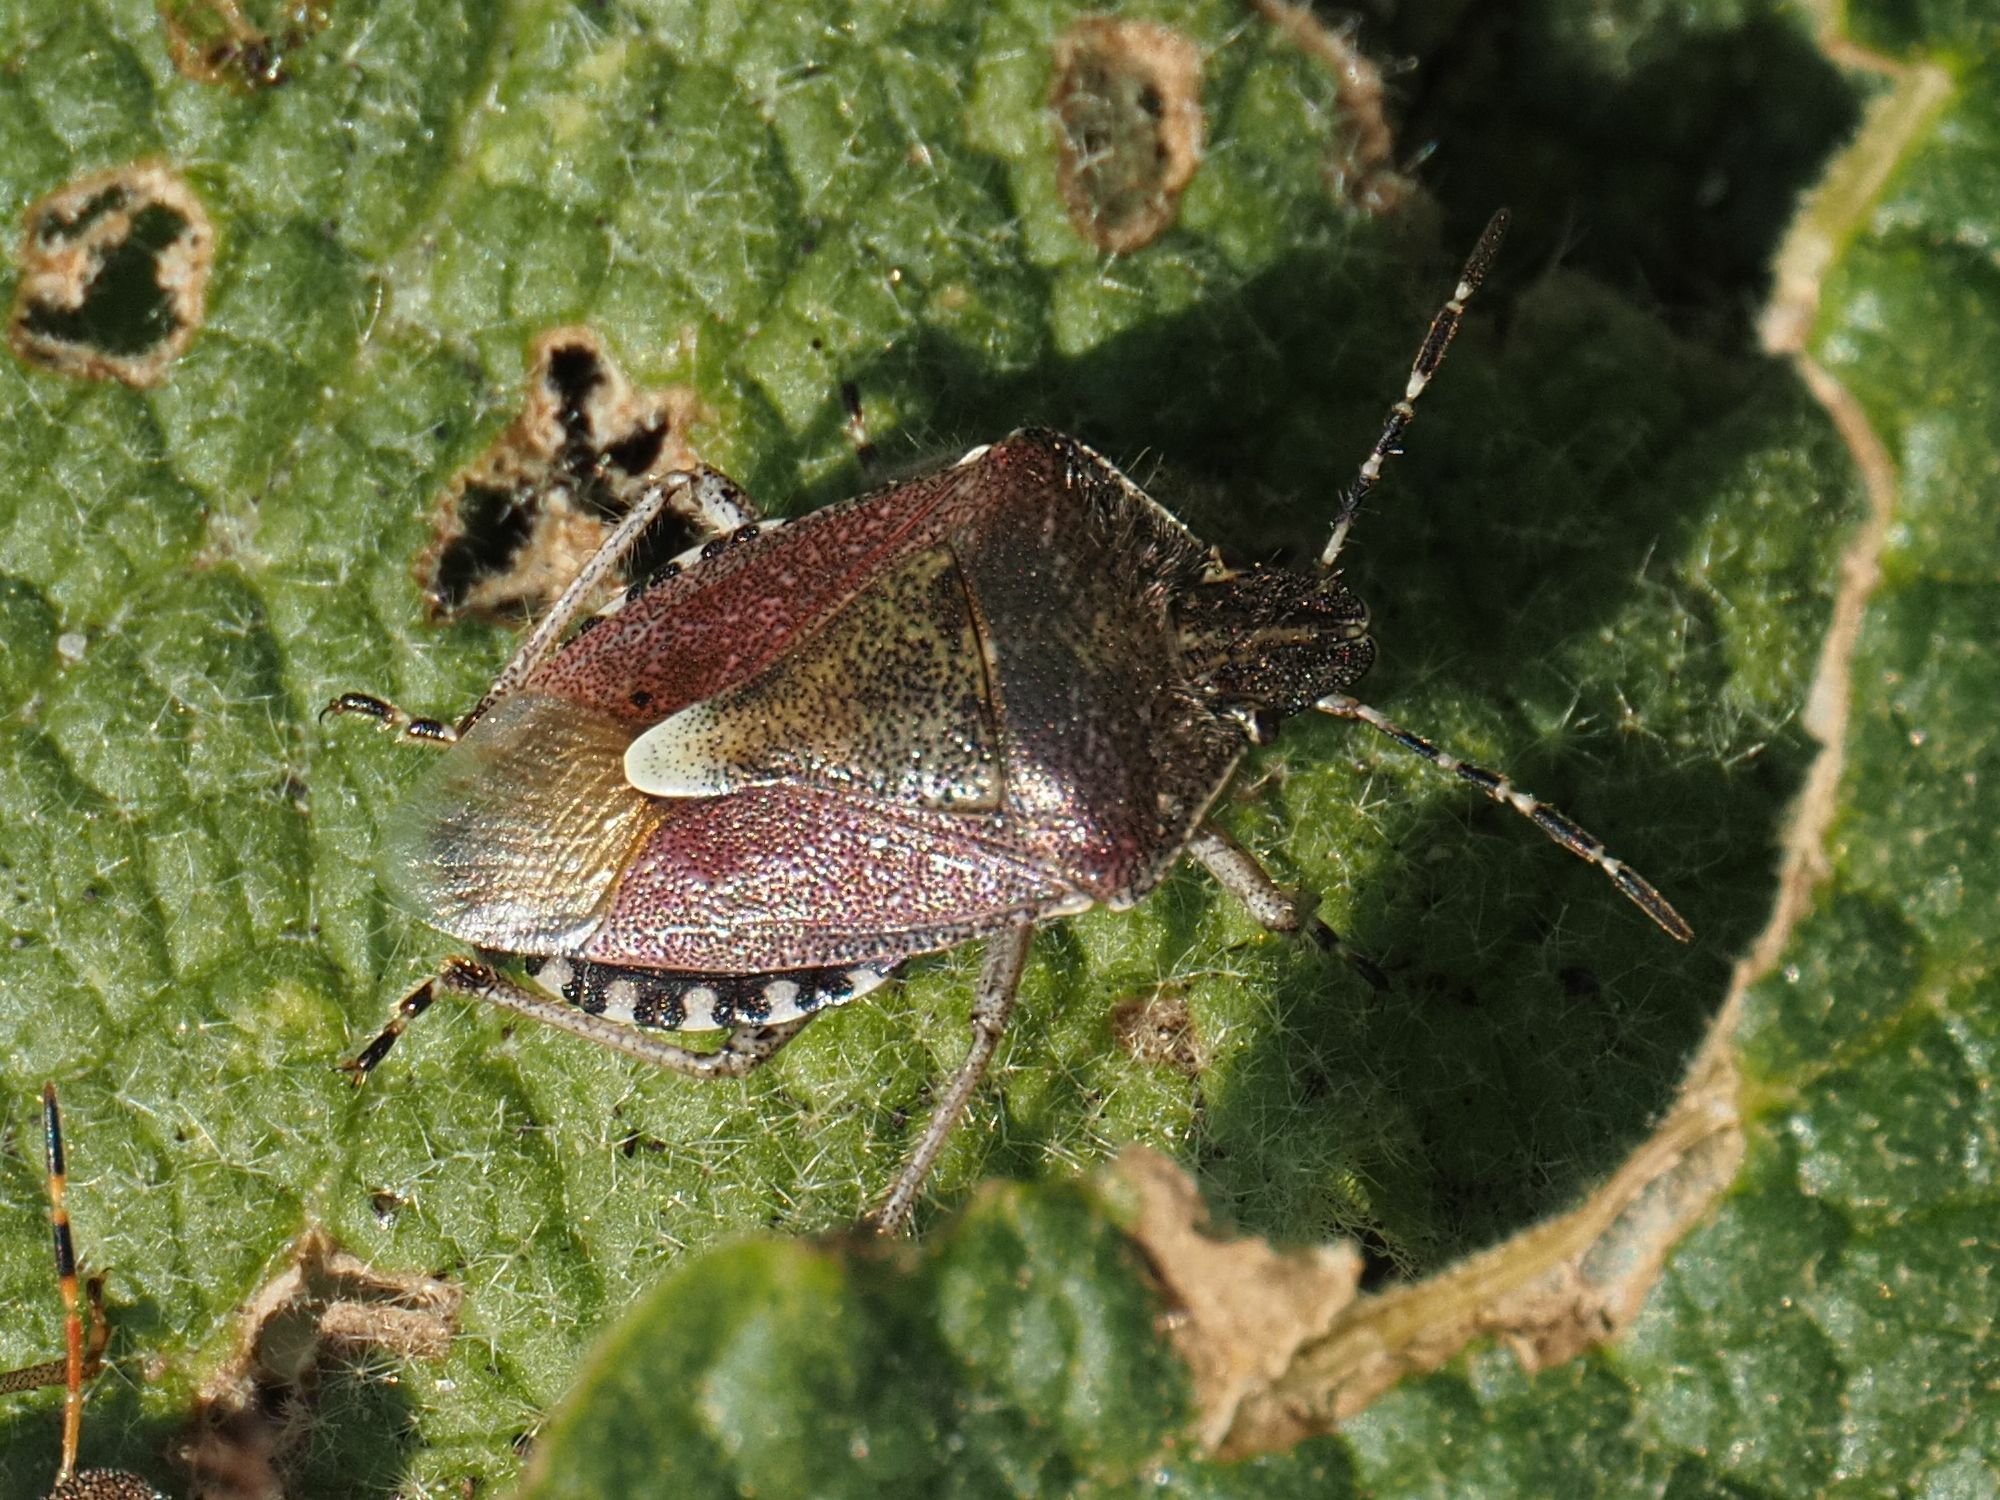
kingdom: Animalia
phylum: Arthropoda
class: Insecta
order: Hemiptera
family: Pentatomidae
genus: Dolycoris
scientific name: Dolycoris baccarum
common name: Sloe bug
